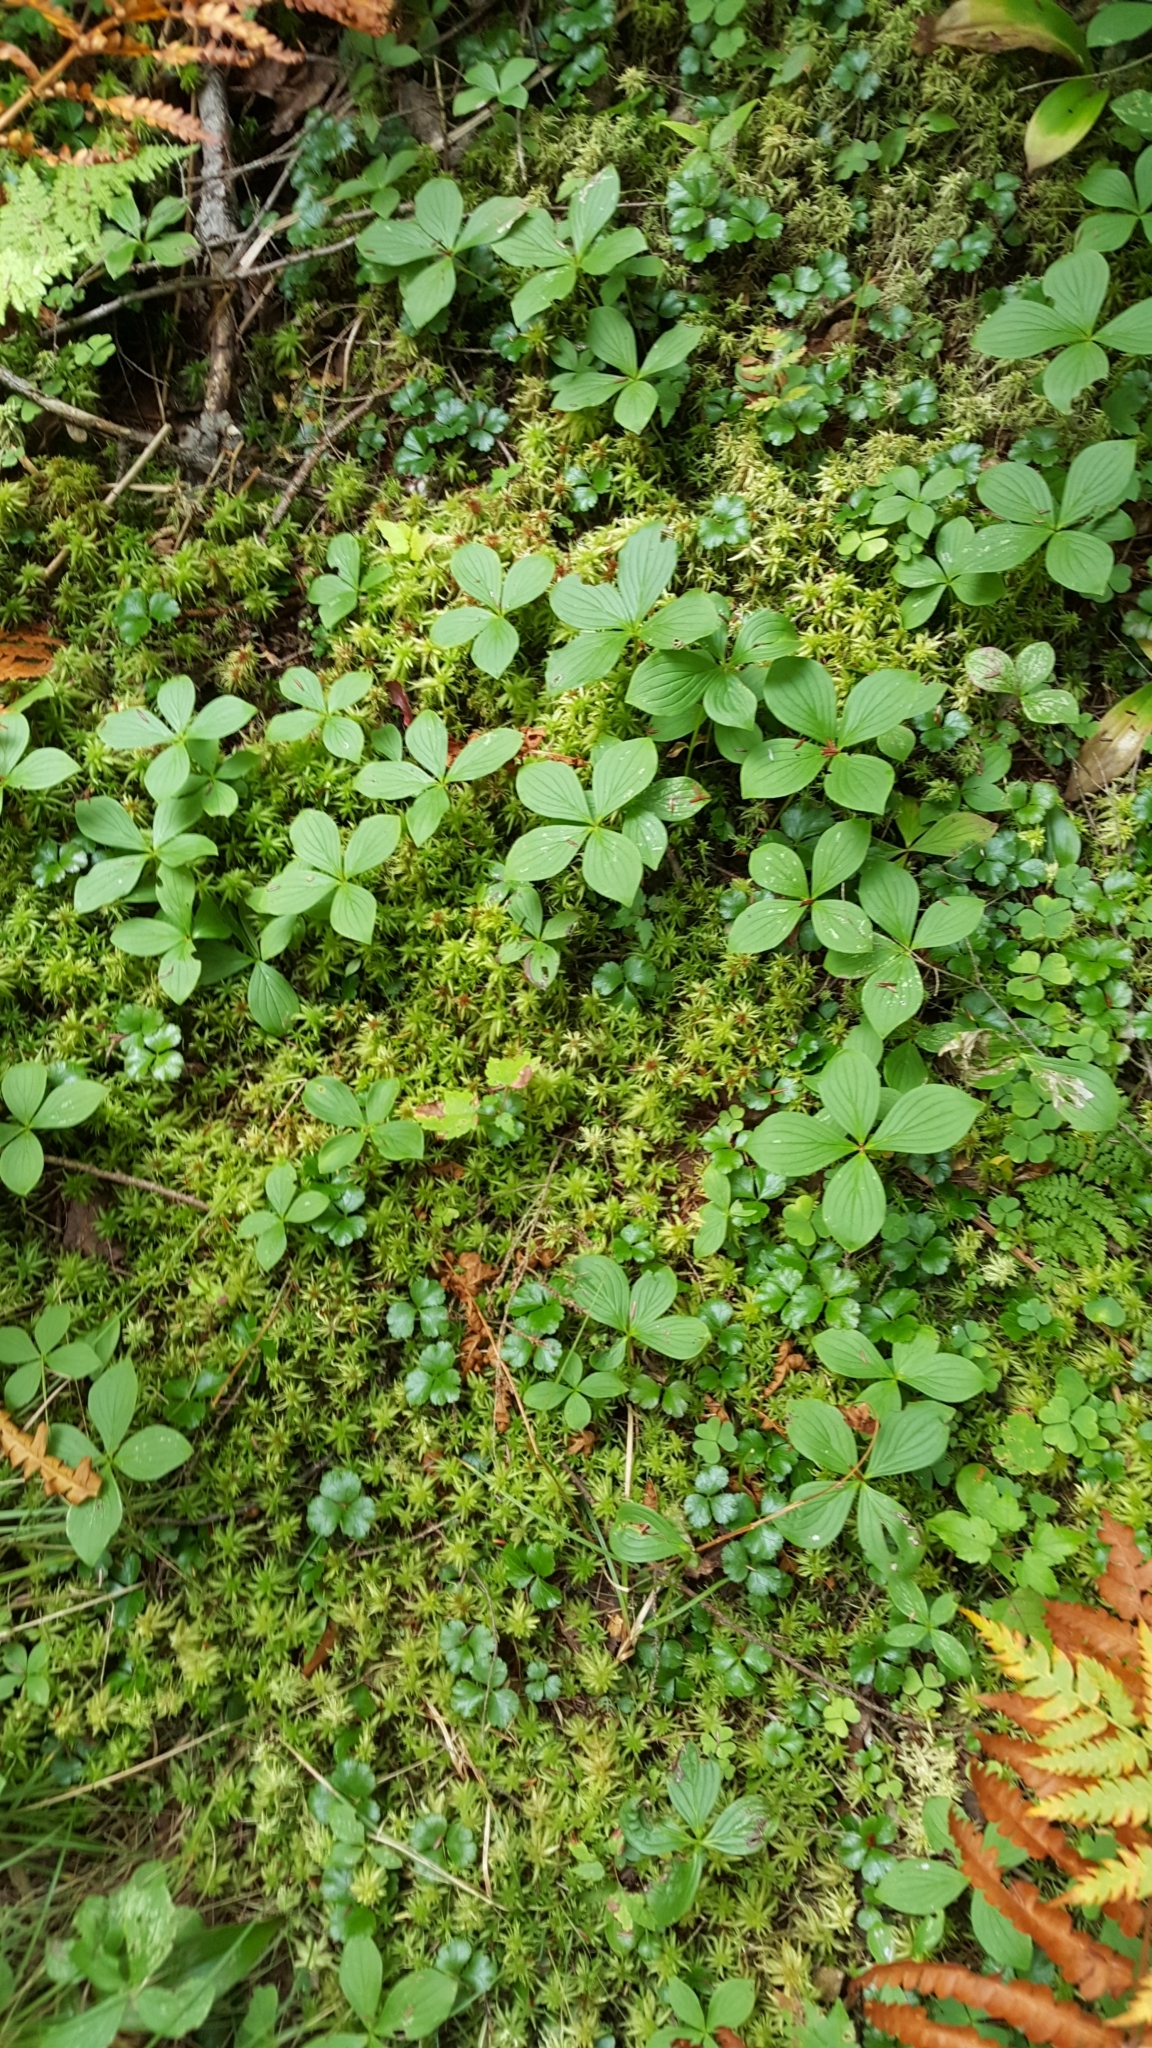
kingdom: Plantae
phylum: Tracheophyta
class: Magnoliopsida
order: Cornales
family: Cornaceae
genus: Cornus
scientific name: Cornus canadensis
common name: Creeping dogwood
